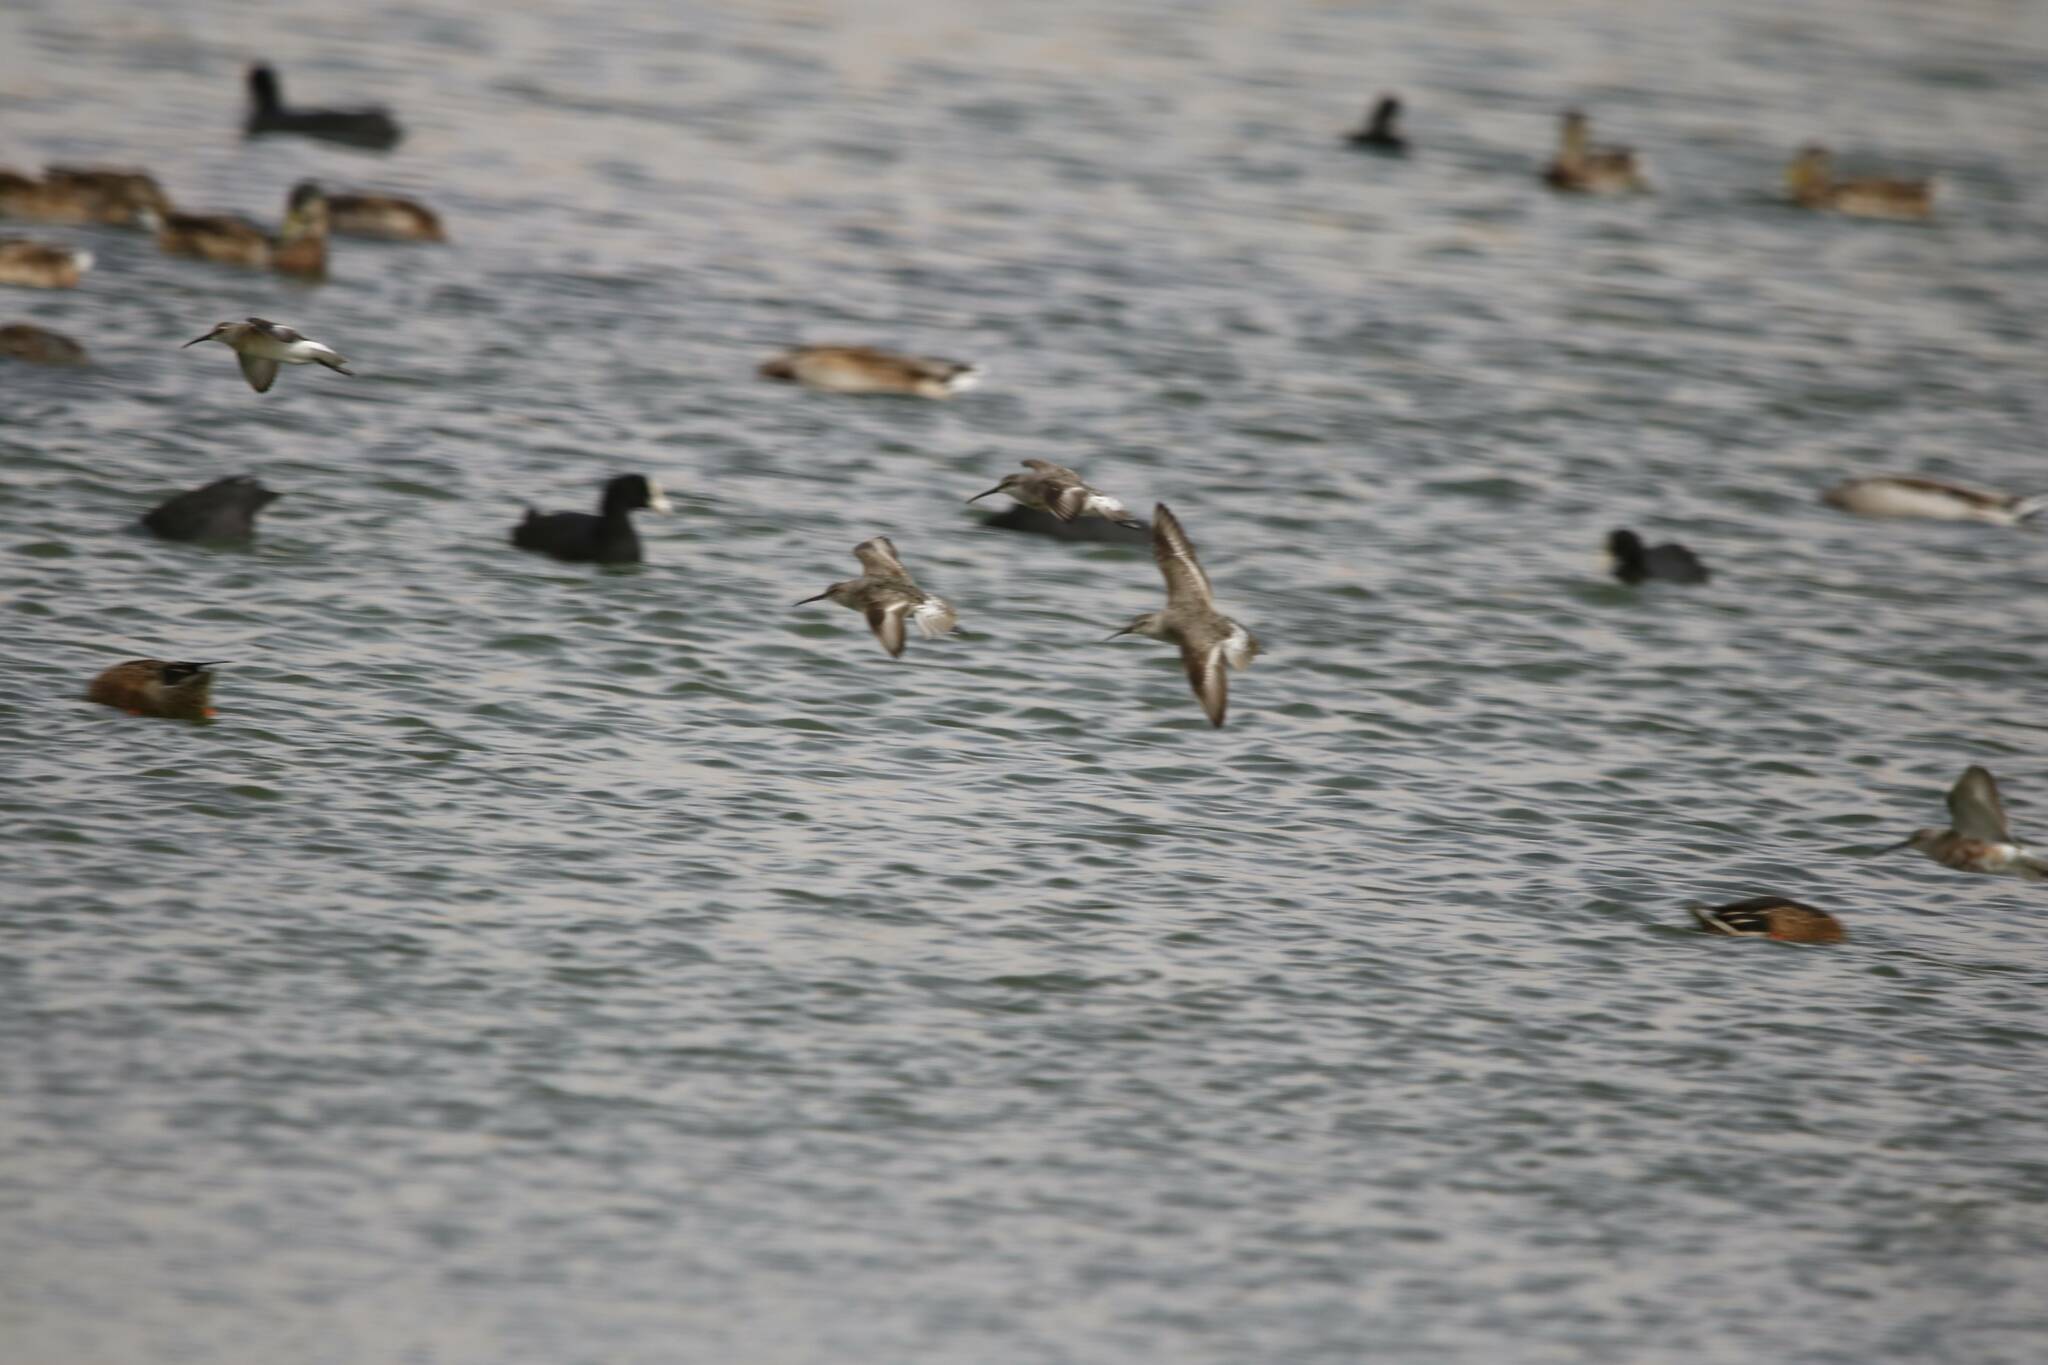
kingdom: Animalia
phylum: Chordata
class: Aves
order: Charadriiformes
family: Scolopacidae
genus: Calidris
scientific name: Calidris ferruginea
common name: Curlew sandpiper
